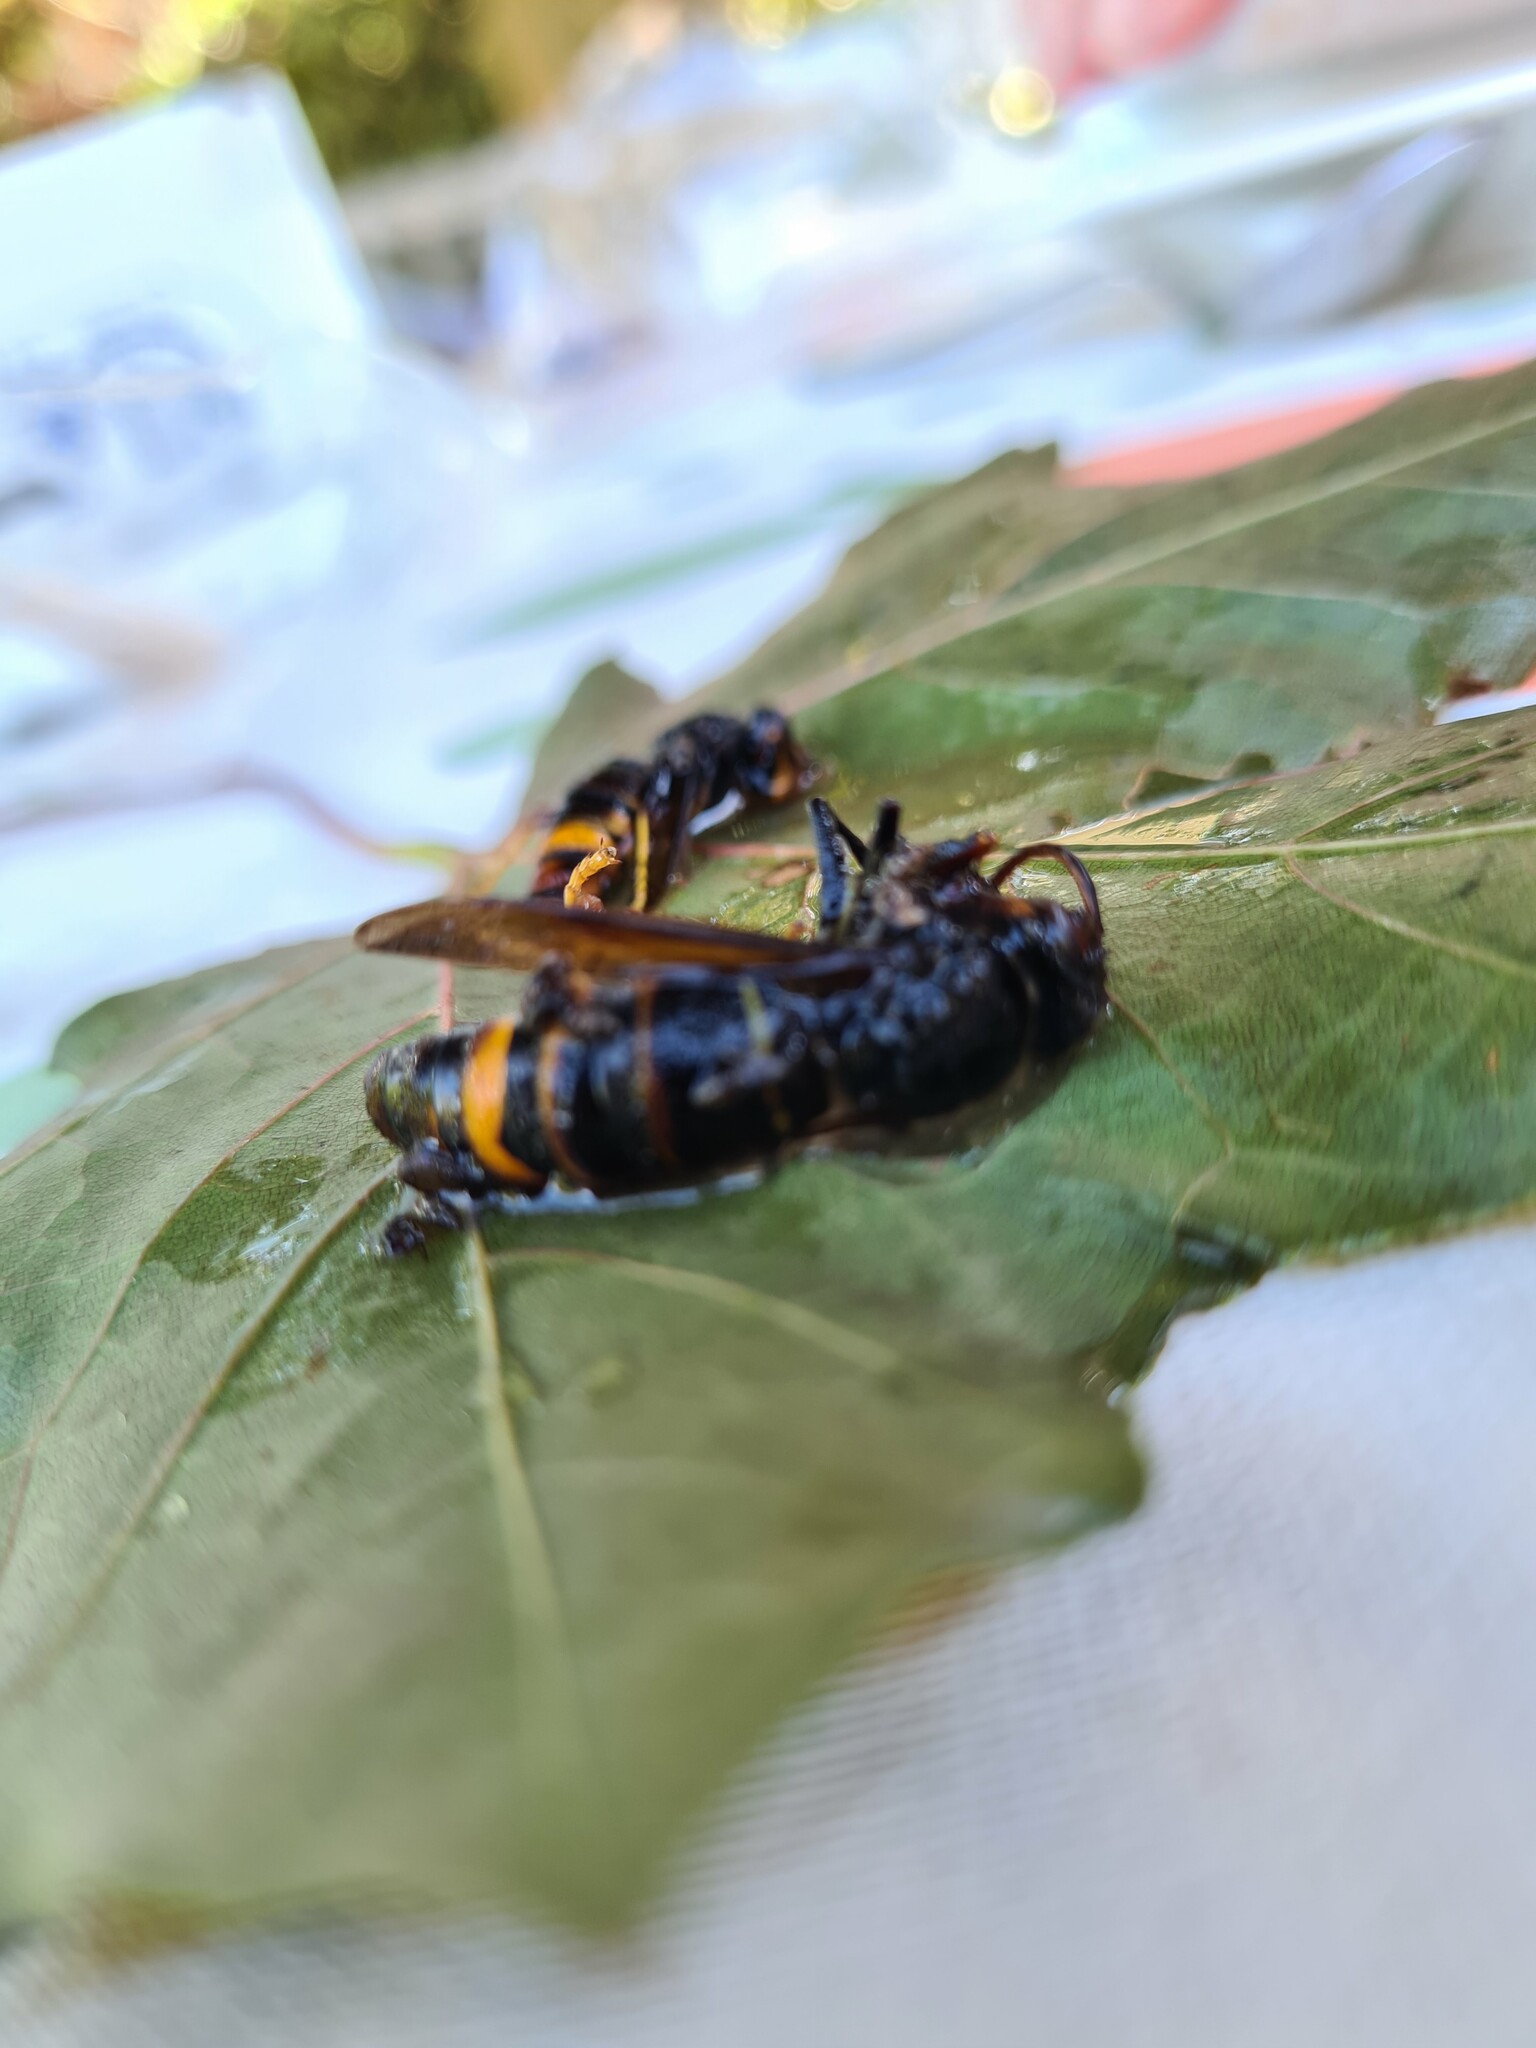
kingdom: Animalia
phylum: Arthropoda
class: Insecta
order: Hymenoptera
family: Vespidae
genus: Vespa
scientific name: Vespa velutina
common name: Asian hornet
